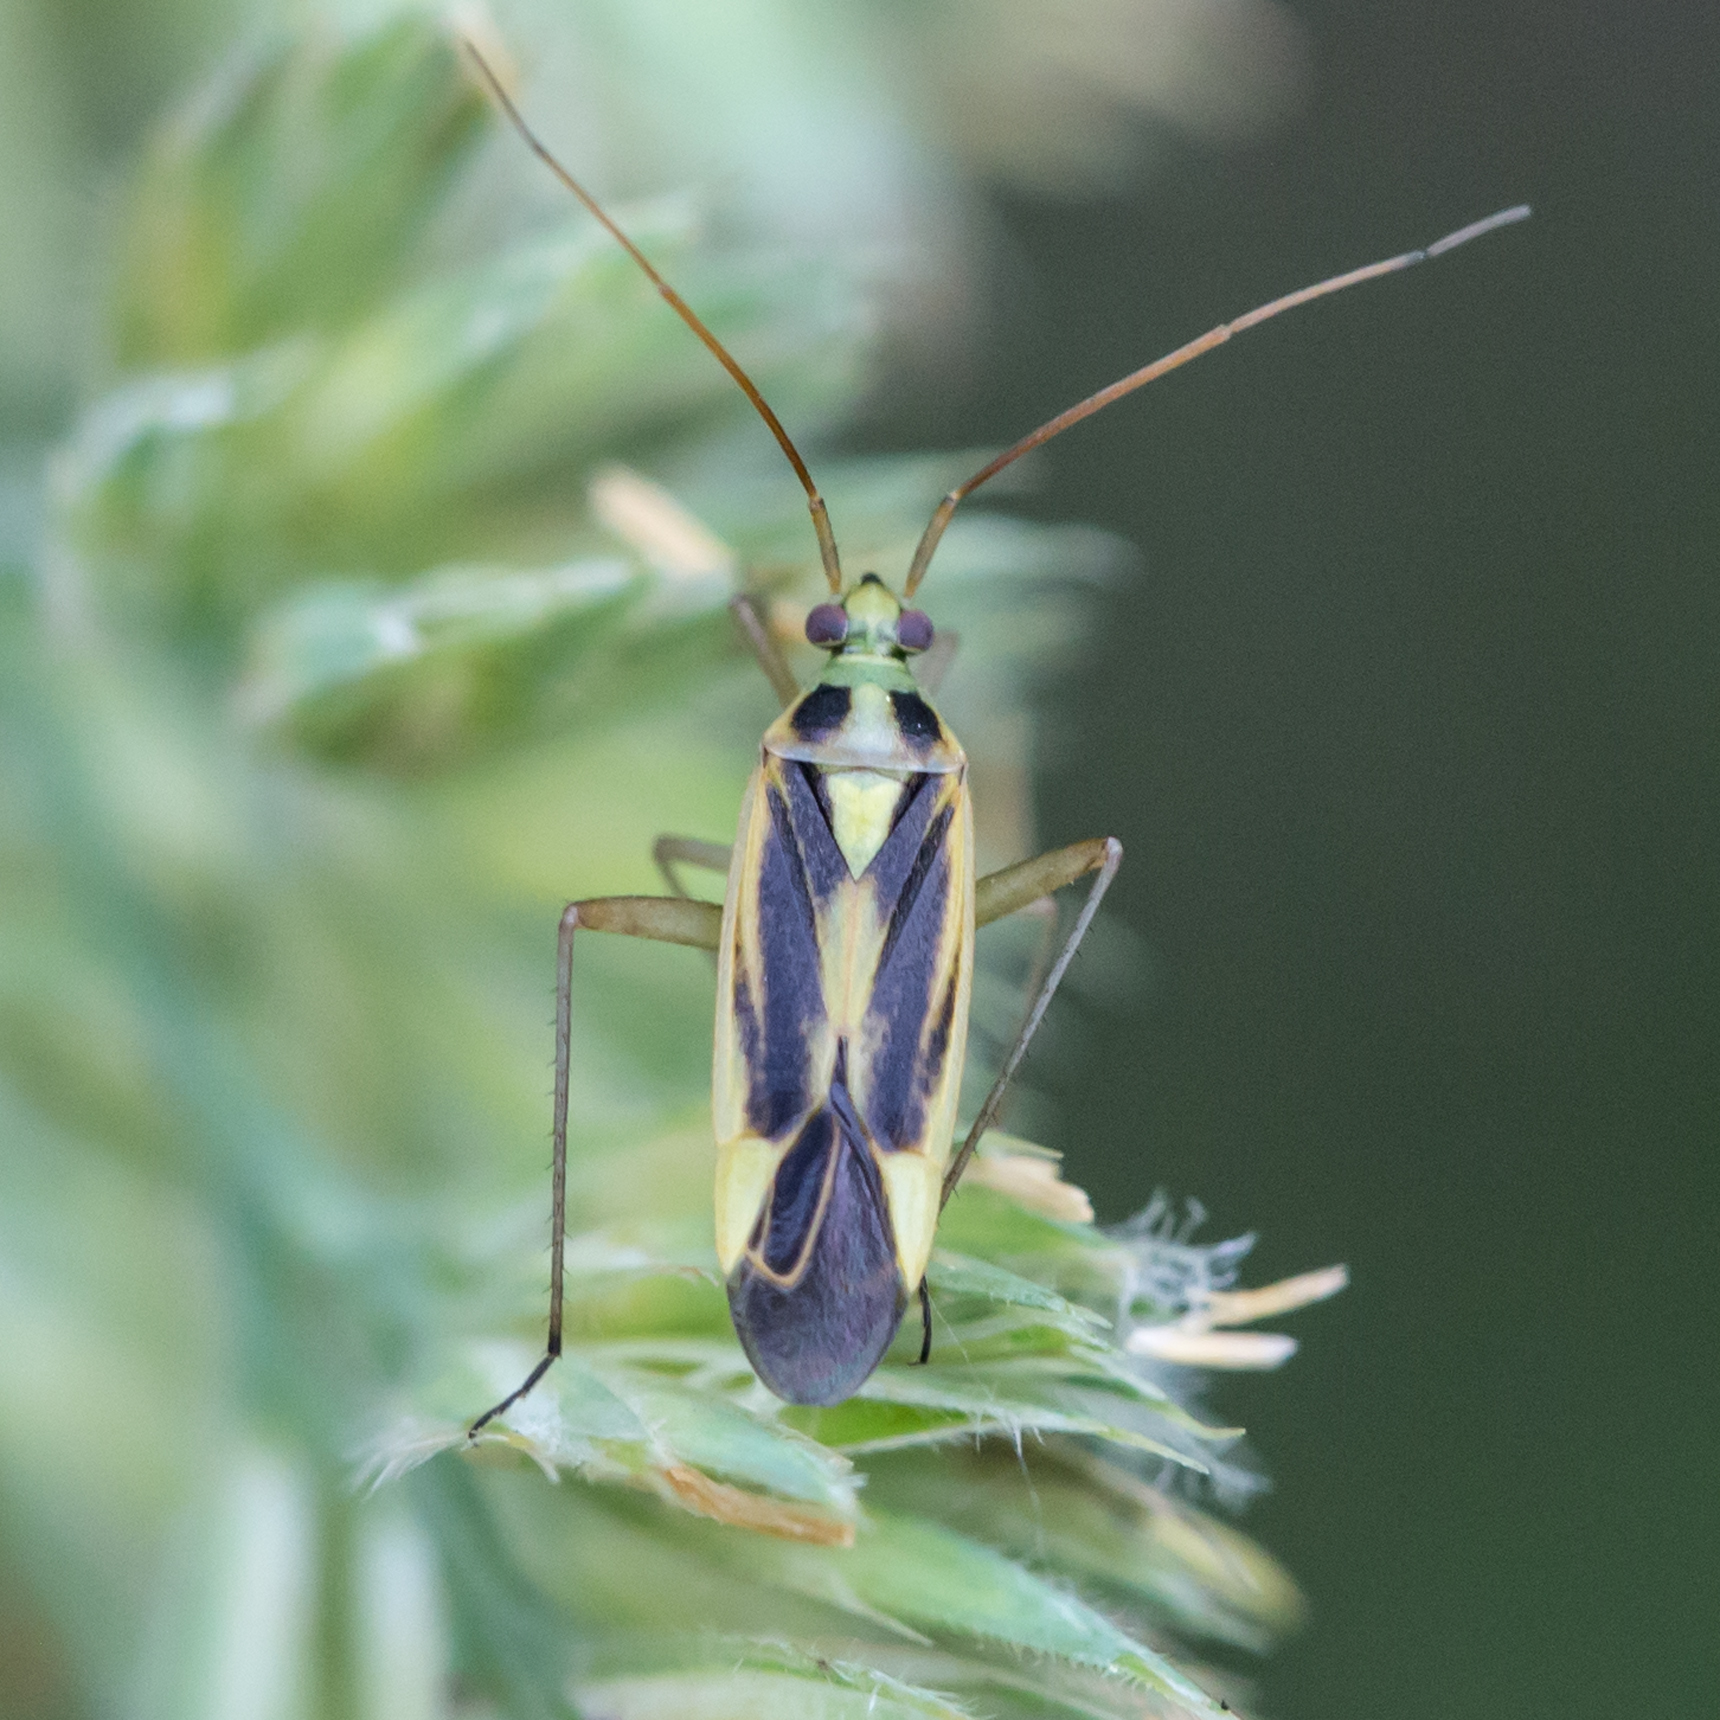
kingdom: Animalia
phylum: Arthropoda
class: Insecta
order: Hemiptera
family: Miridae
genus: Stenotus
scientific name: Stenotus binotatus
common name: Plant bug
